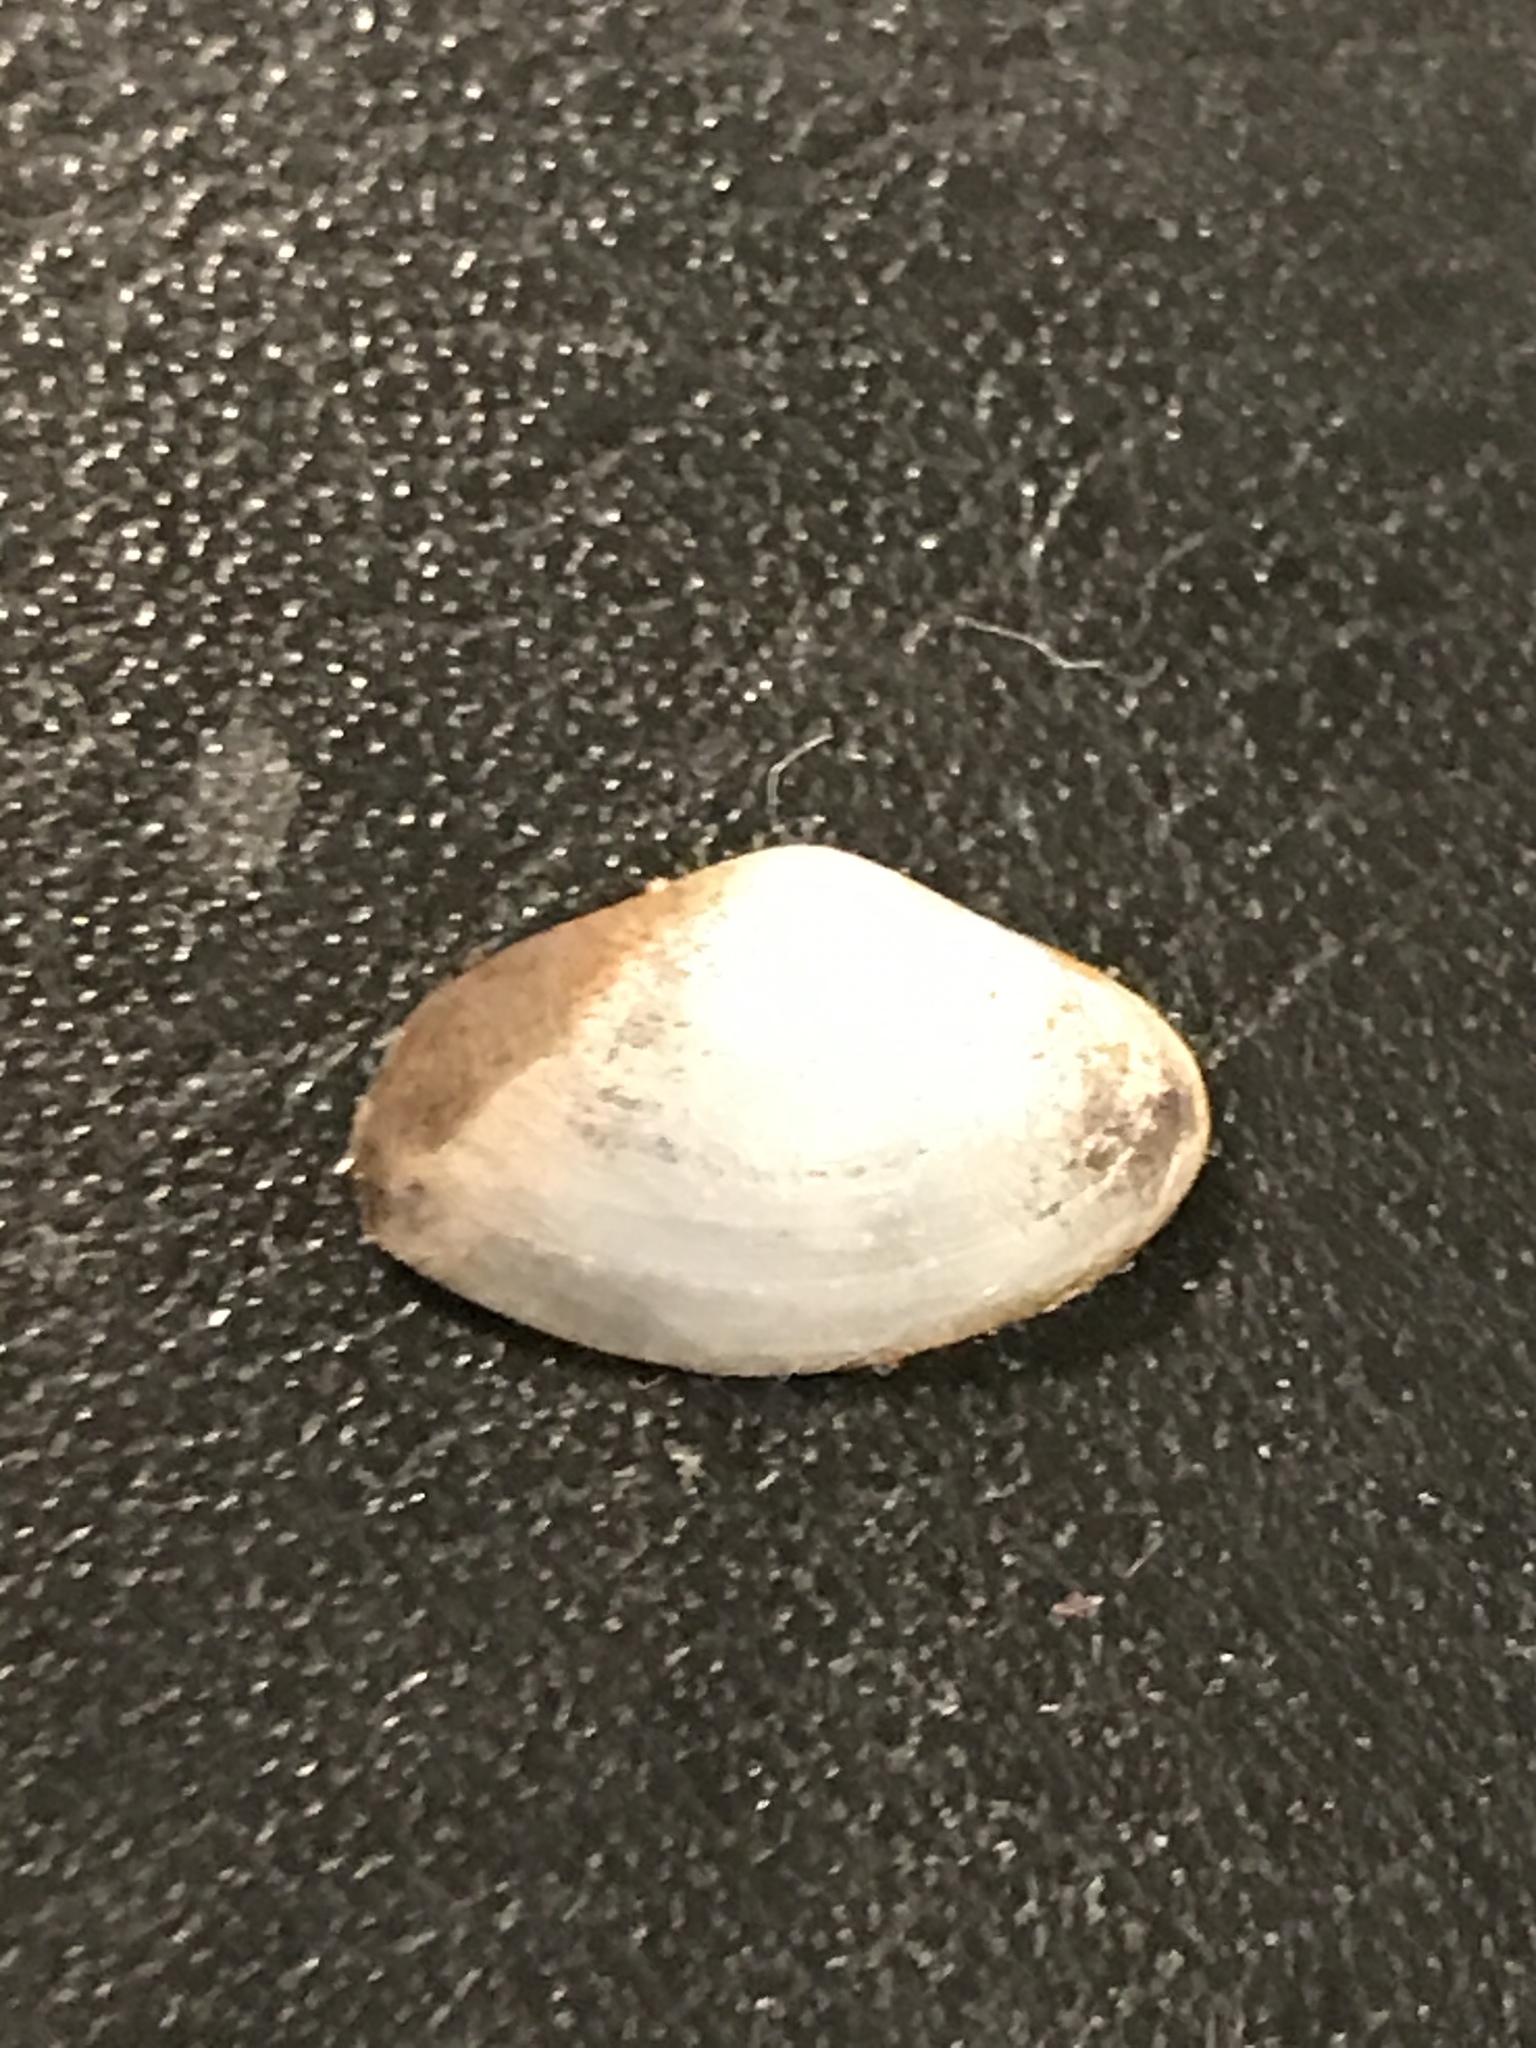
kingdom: Animalia
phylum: Mollusca
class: Bivalvia
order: Myida
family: Corbulidae
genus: Potamocorbula
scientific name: Potamocorbula amurensis
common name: Brackish-water corbula
